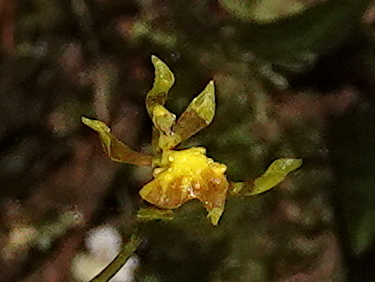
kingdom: Plantae
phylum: Tracheophyta
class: Liliopsida
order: Asparagales
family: Orchidaceae
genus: Cyrtochilum
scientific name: Cyrtochilum meirax
